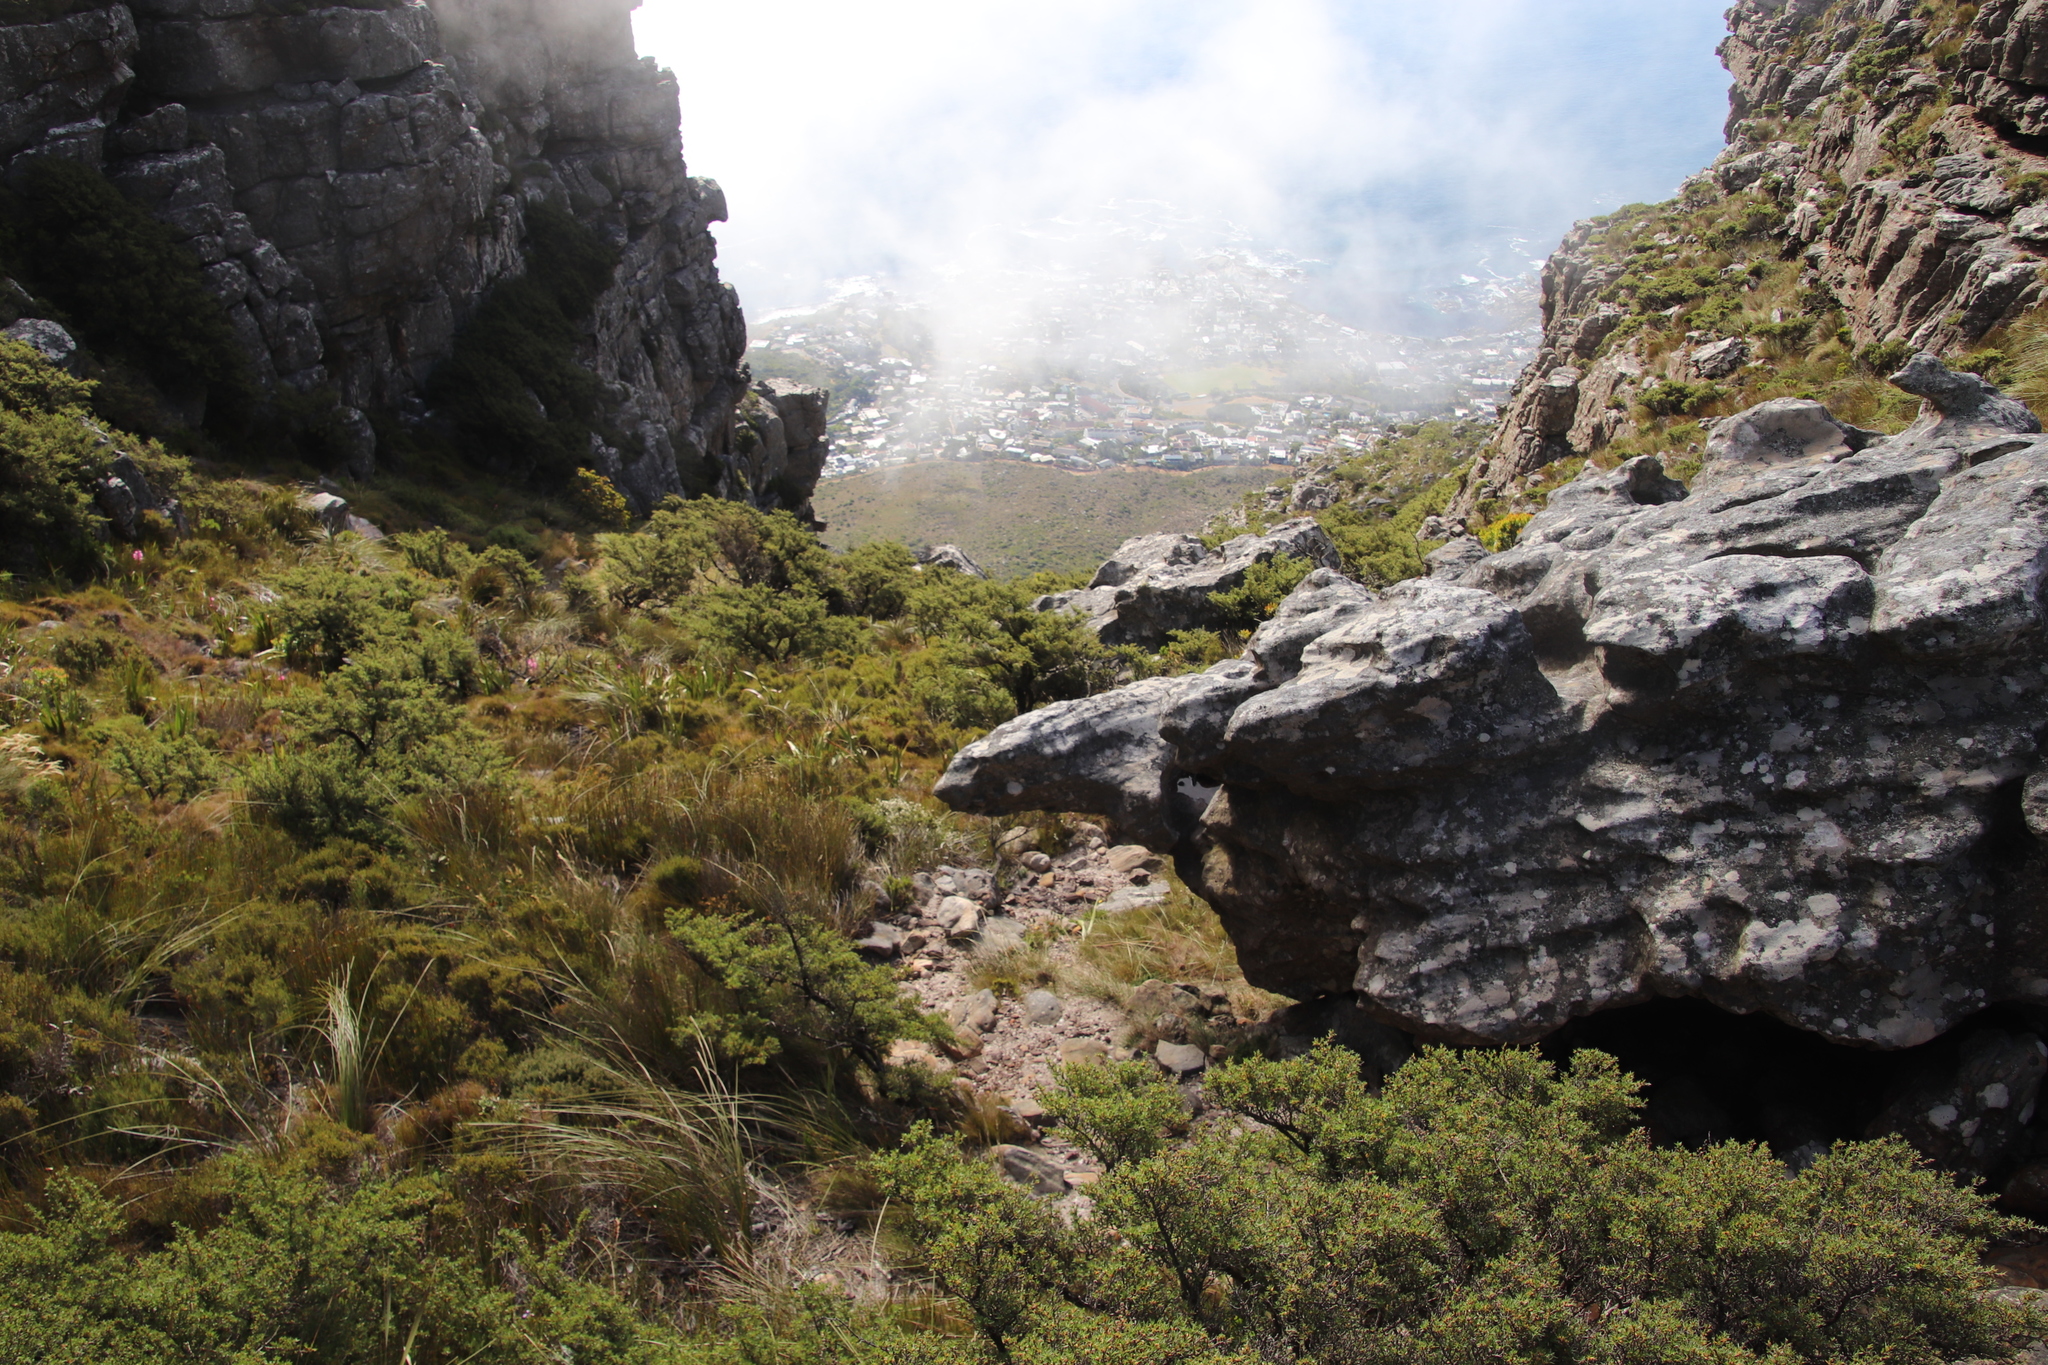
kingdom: Plantae
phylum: Tracheophyta
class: Liliopsida
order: Asparagales
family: Iridaceae
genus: Watsonia
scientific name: Watsonia borbonica
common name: Bugle-lily
